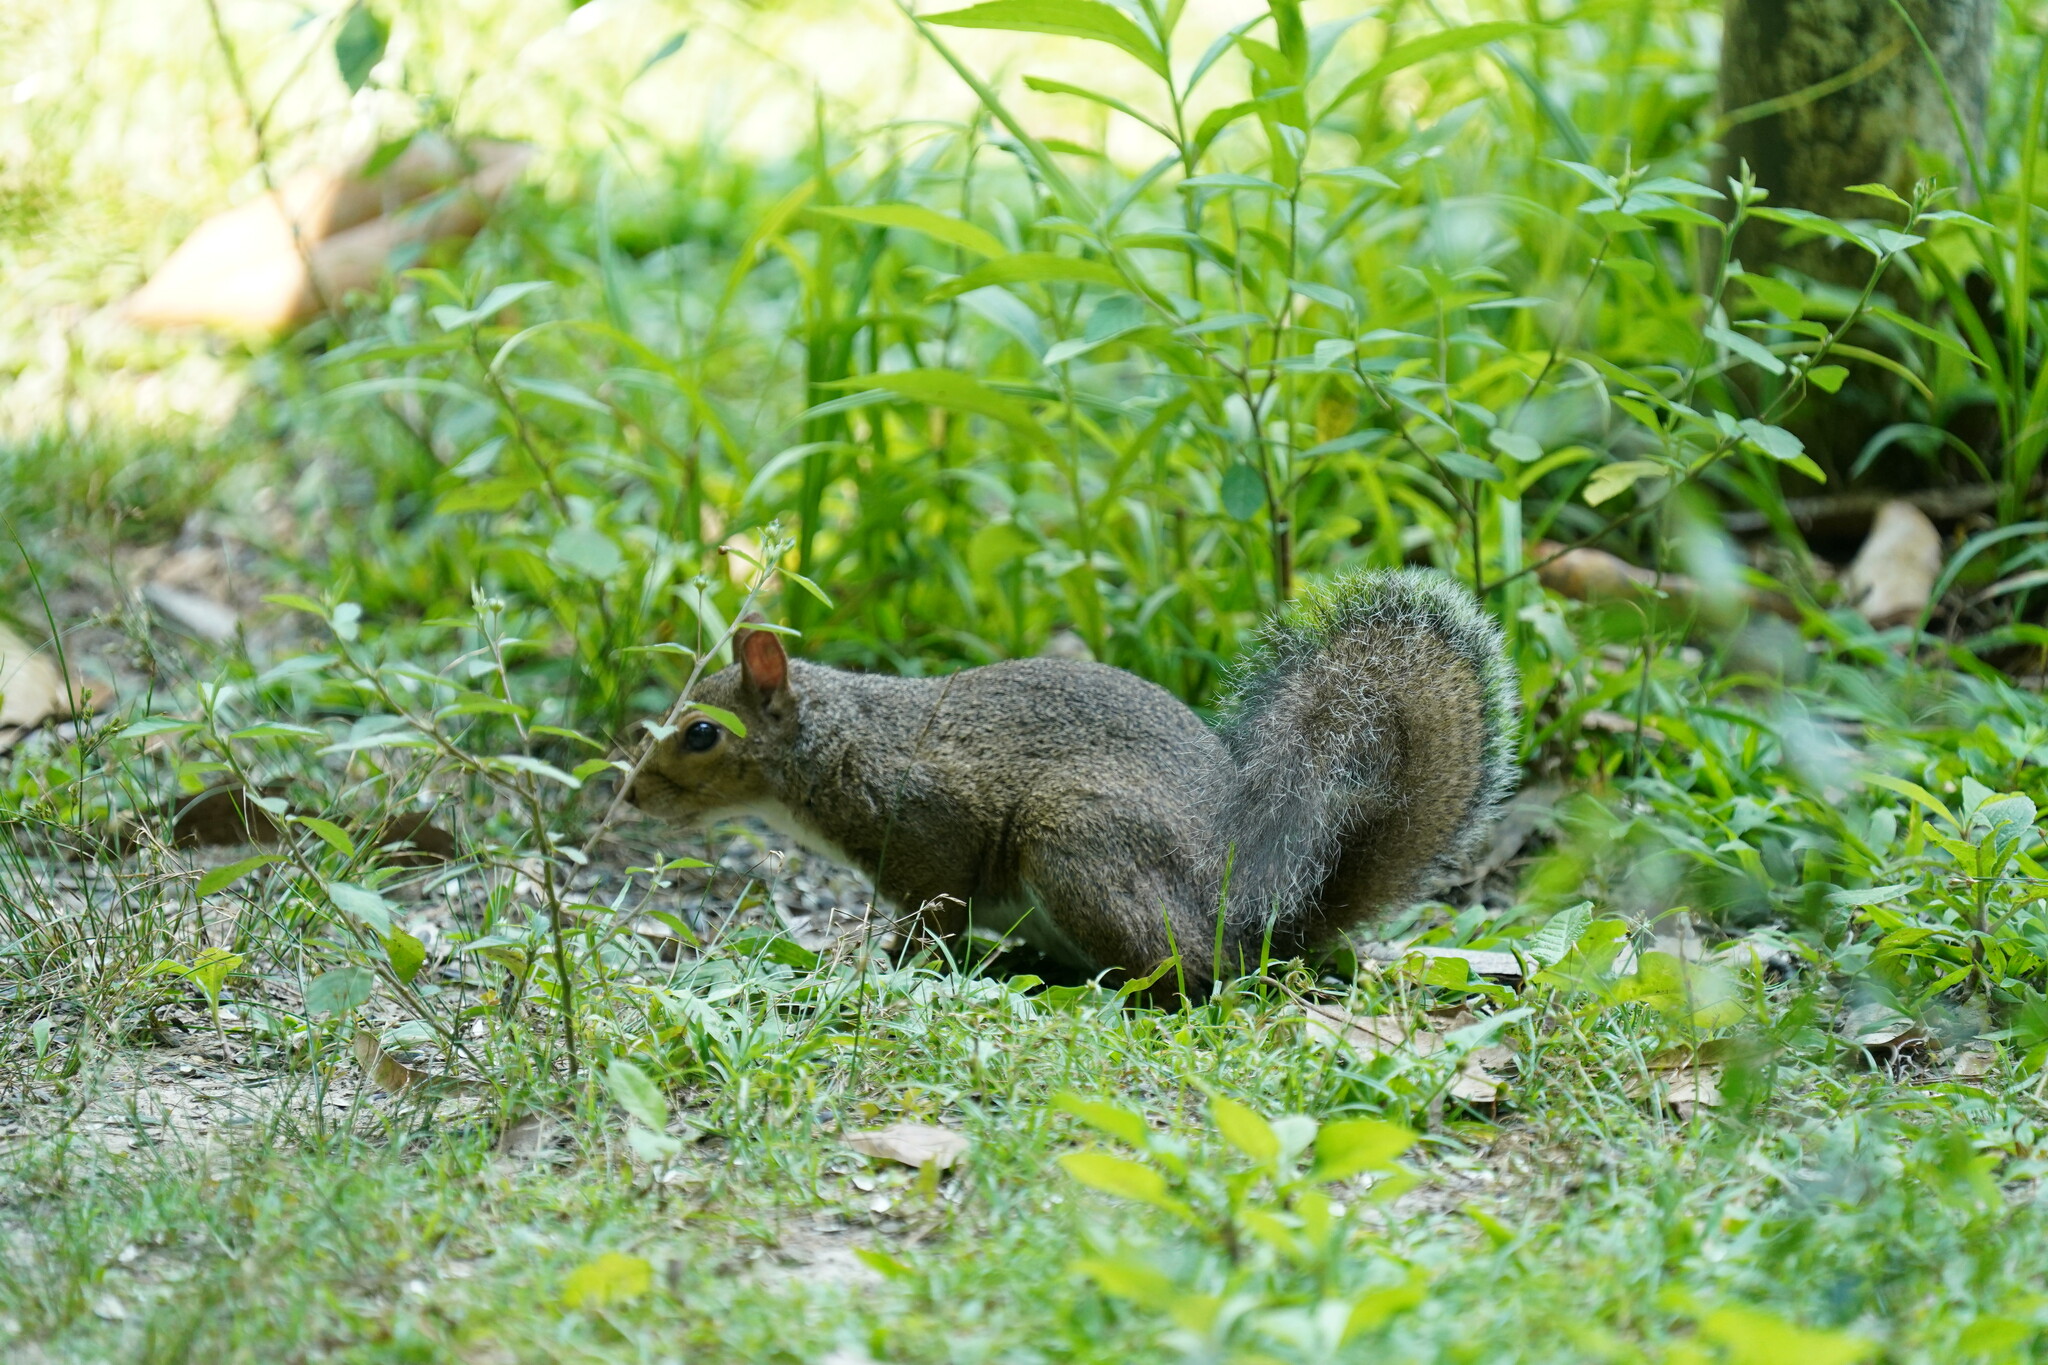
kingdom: Animalia
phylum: Chordata
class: Mammalia
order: Rodentia
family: Sciuridae
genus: Sciurus
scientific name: Sciurus carolinensis
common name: Eastern gray squirrel
